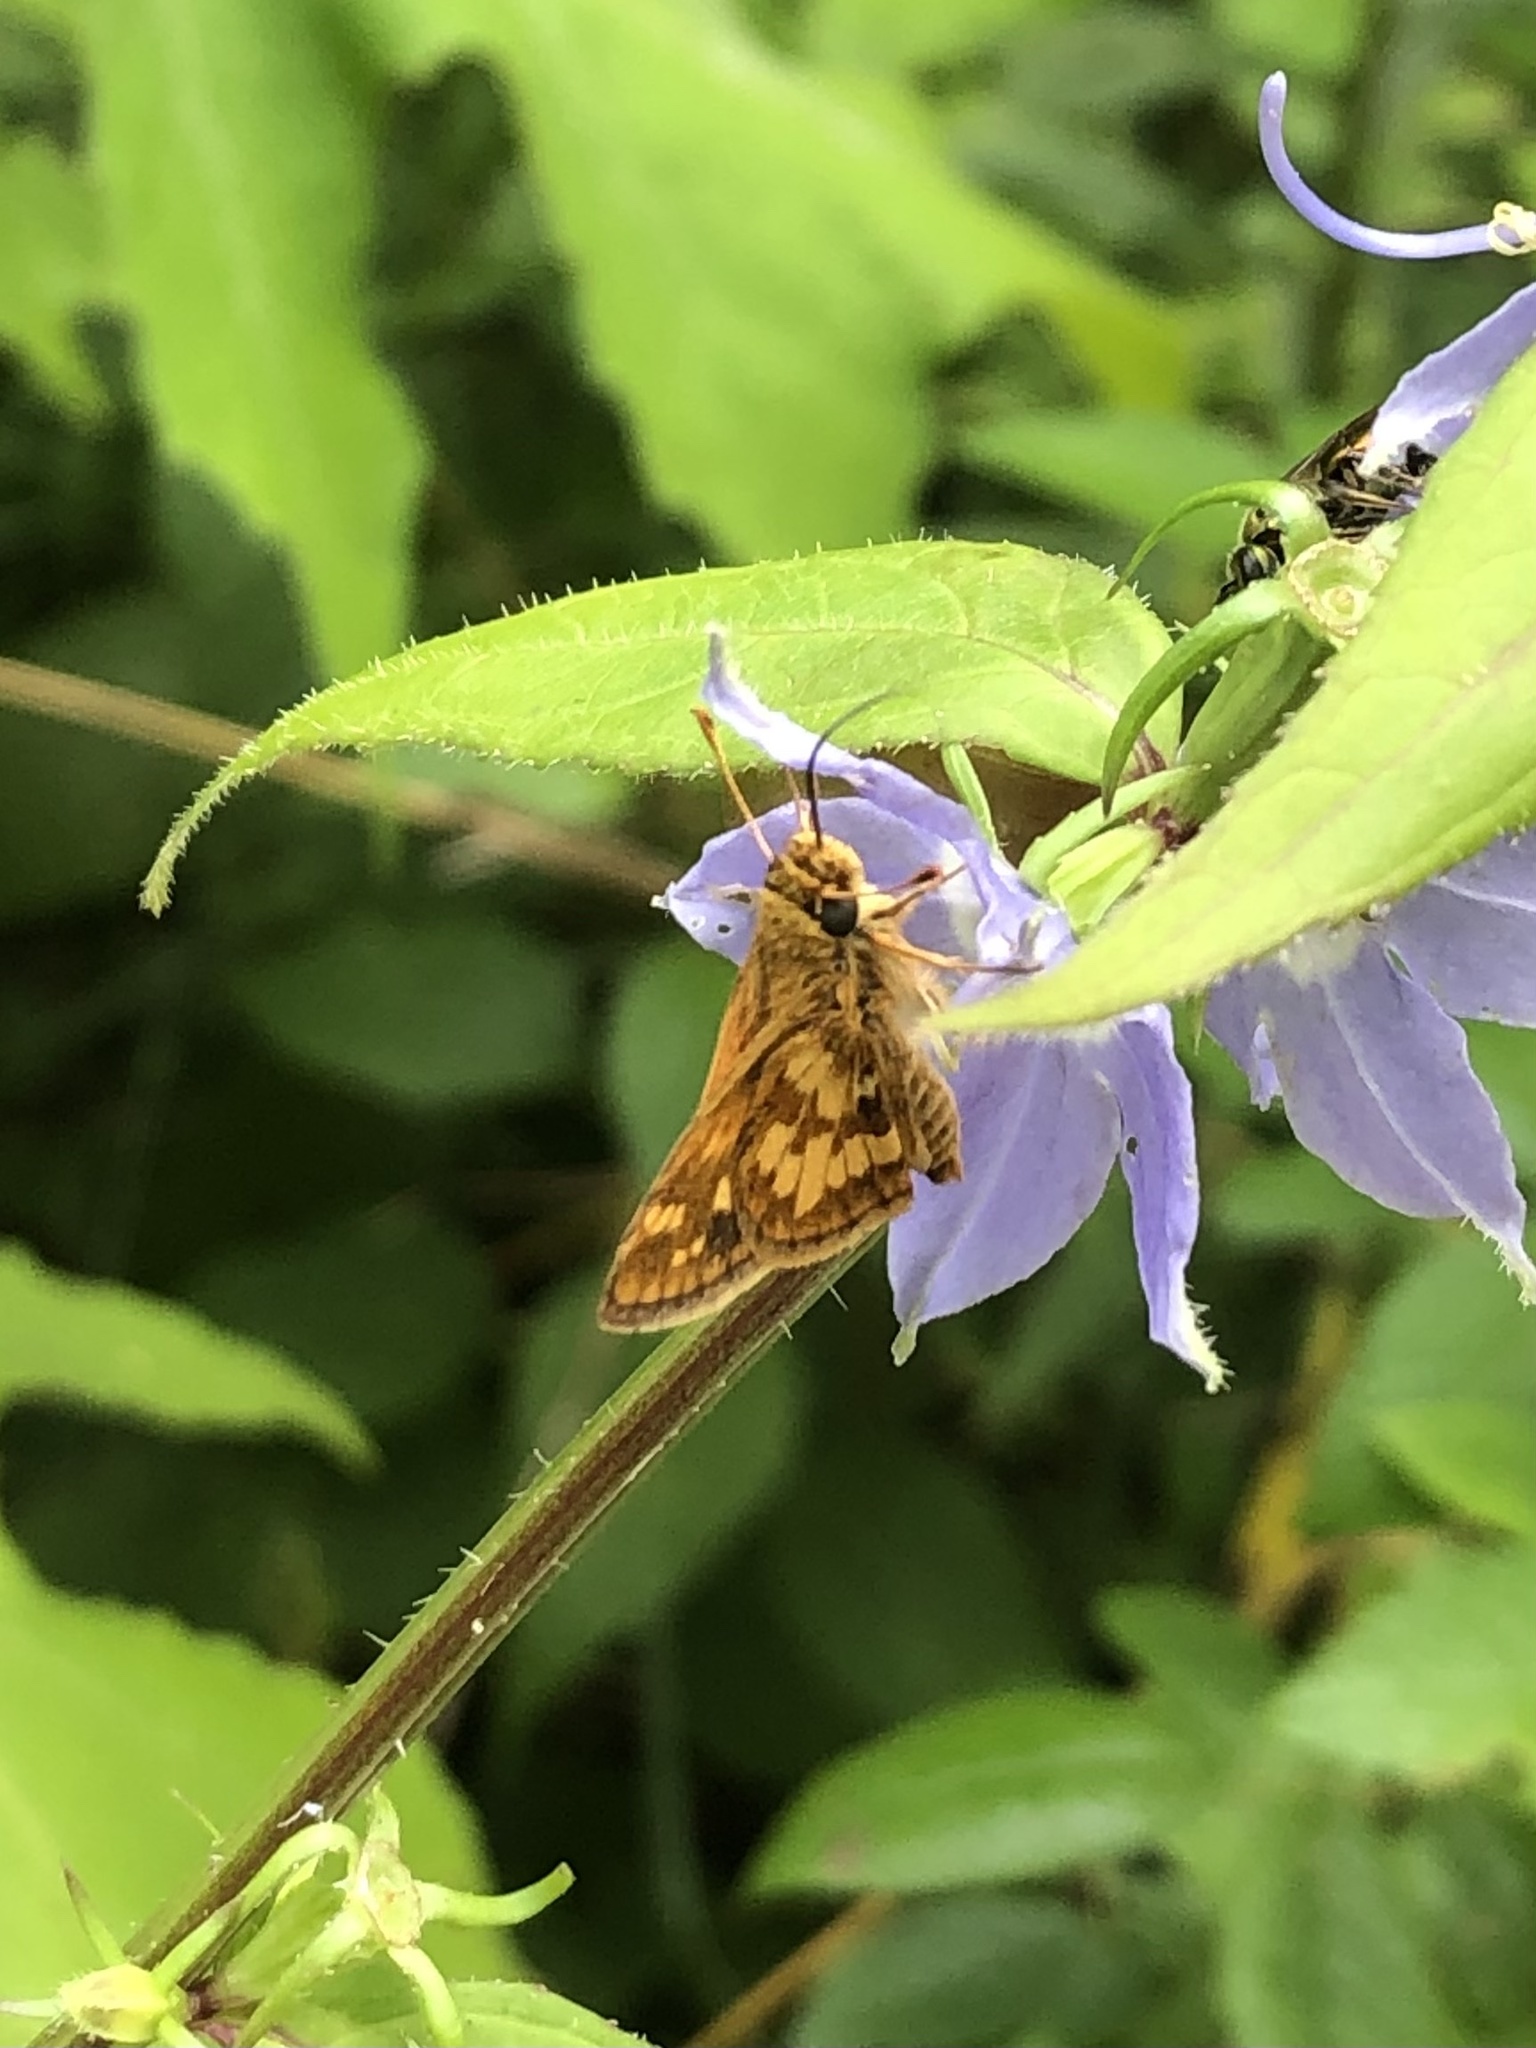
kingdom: Animalia
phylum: Arthropoda
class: Insecta
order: Lepidoptera
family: Hesperiidae
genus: Polites
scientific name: Polites coras
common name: Peck's skipper
